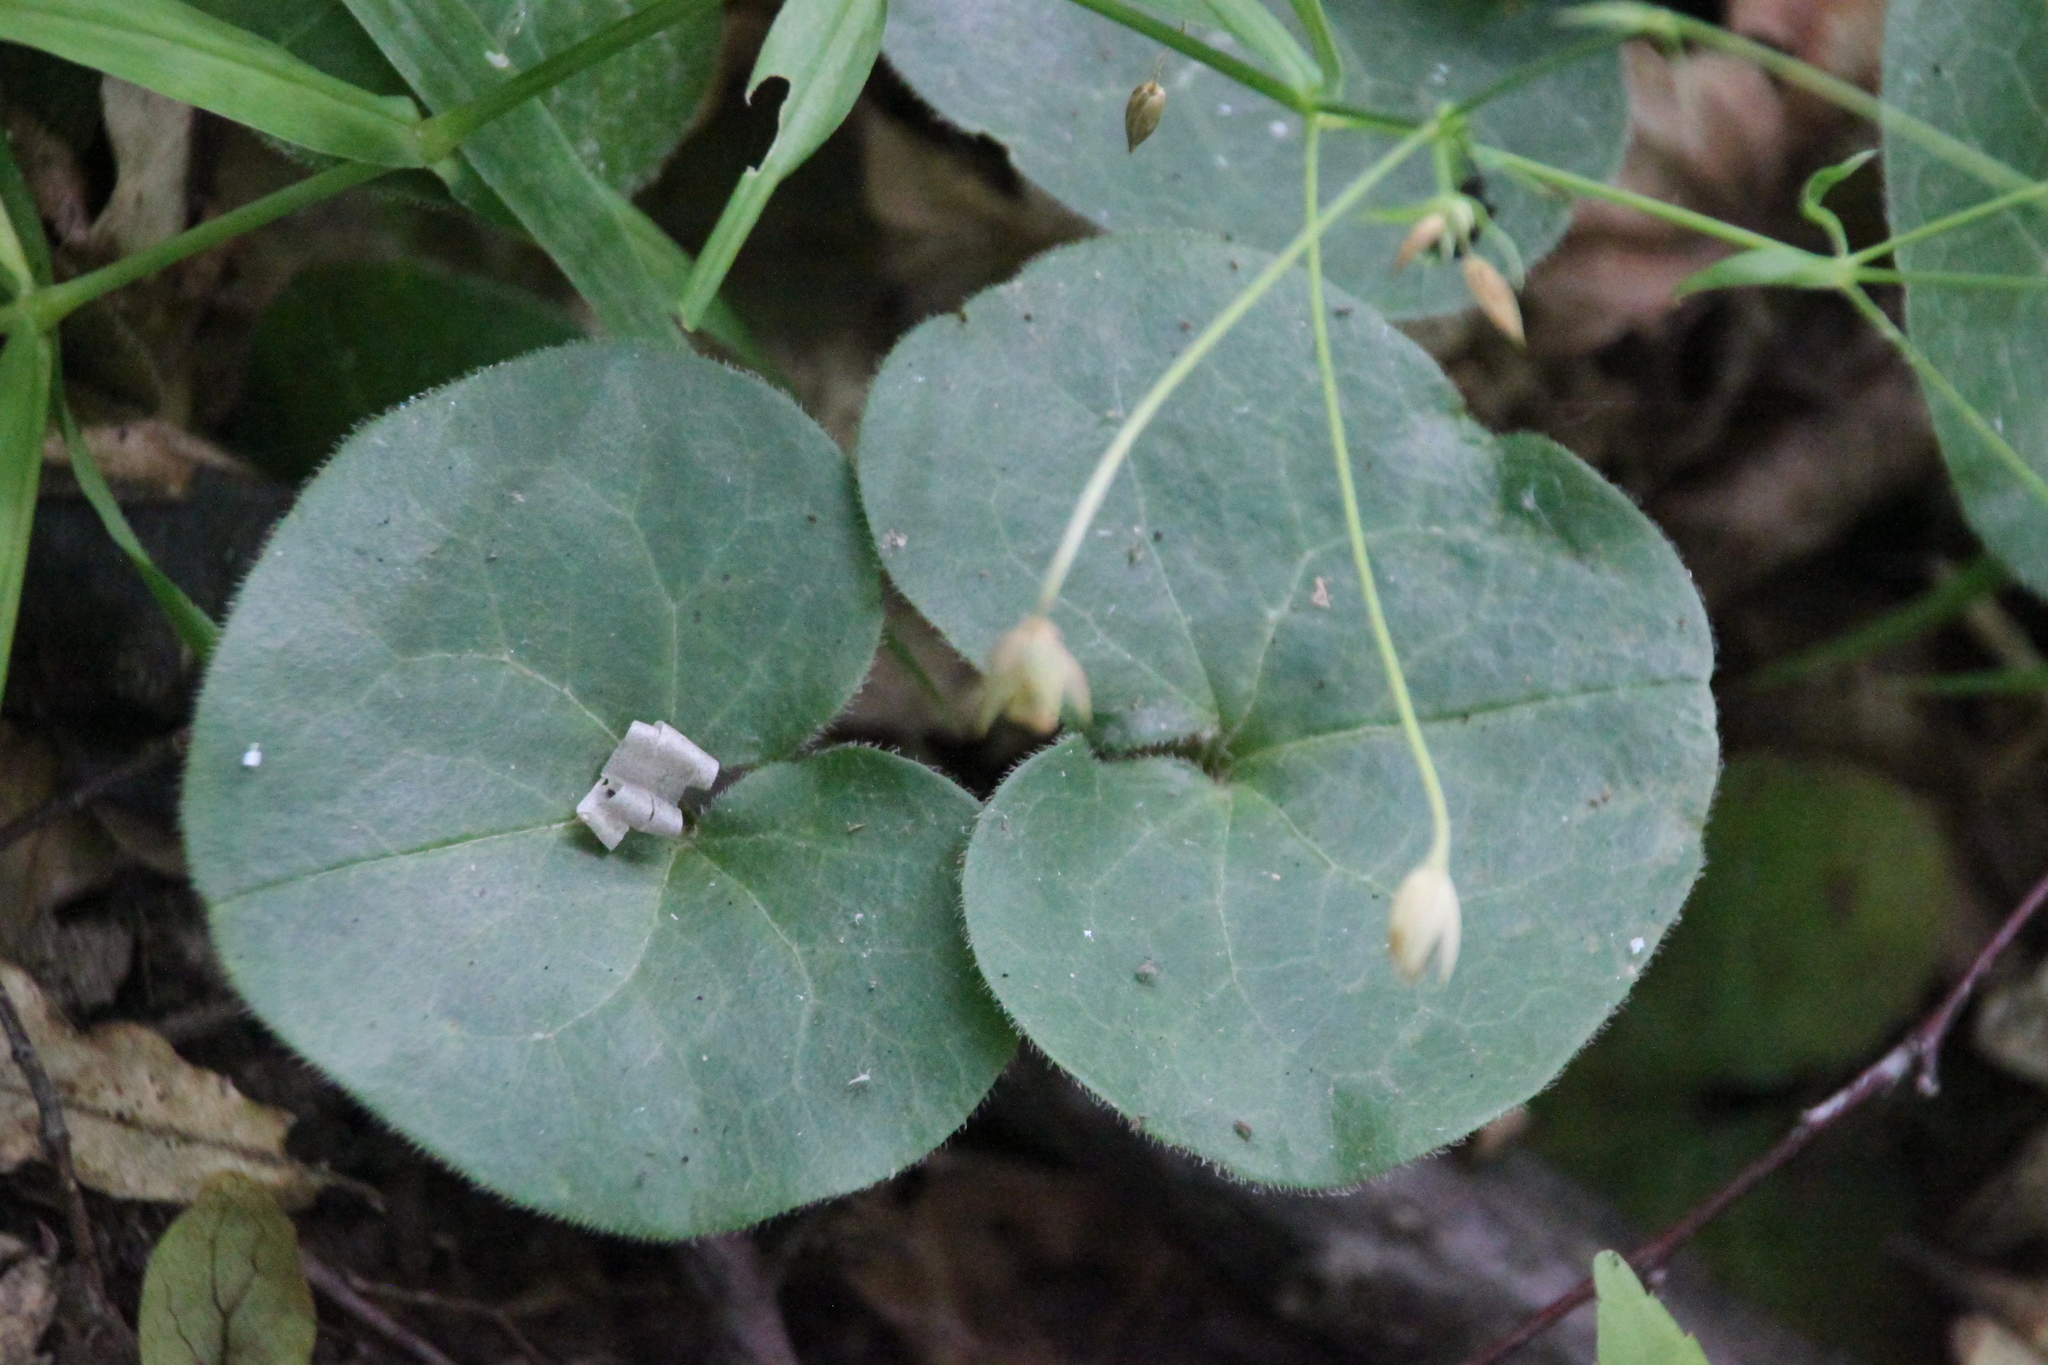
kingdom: Plantae
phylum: Tracheophyta
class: Magnoliopsida
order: Piperales
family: Aristolochiaceae
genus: Asarum
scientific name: Asarum europaeum
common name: Asarabacca
